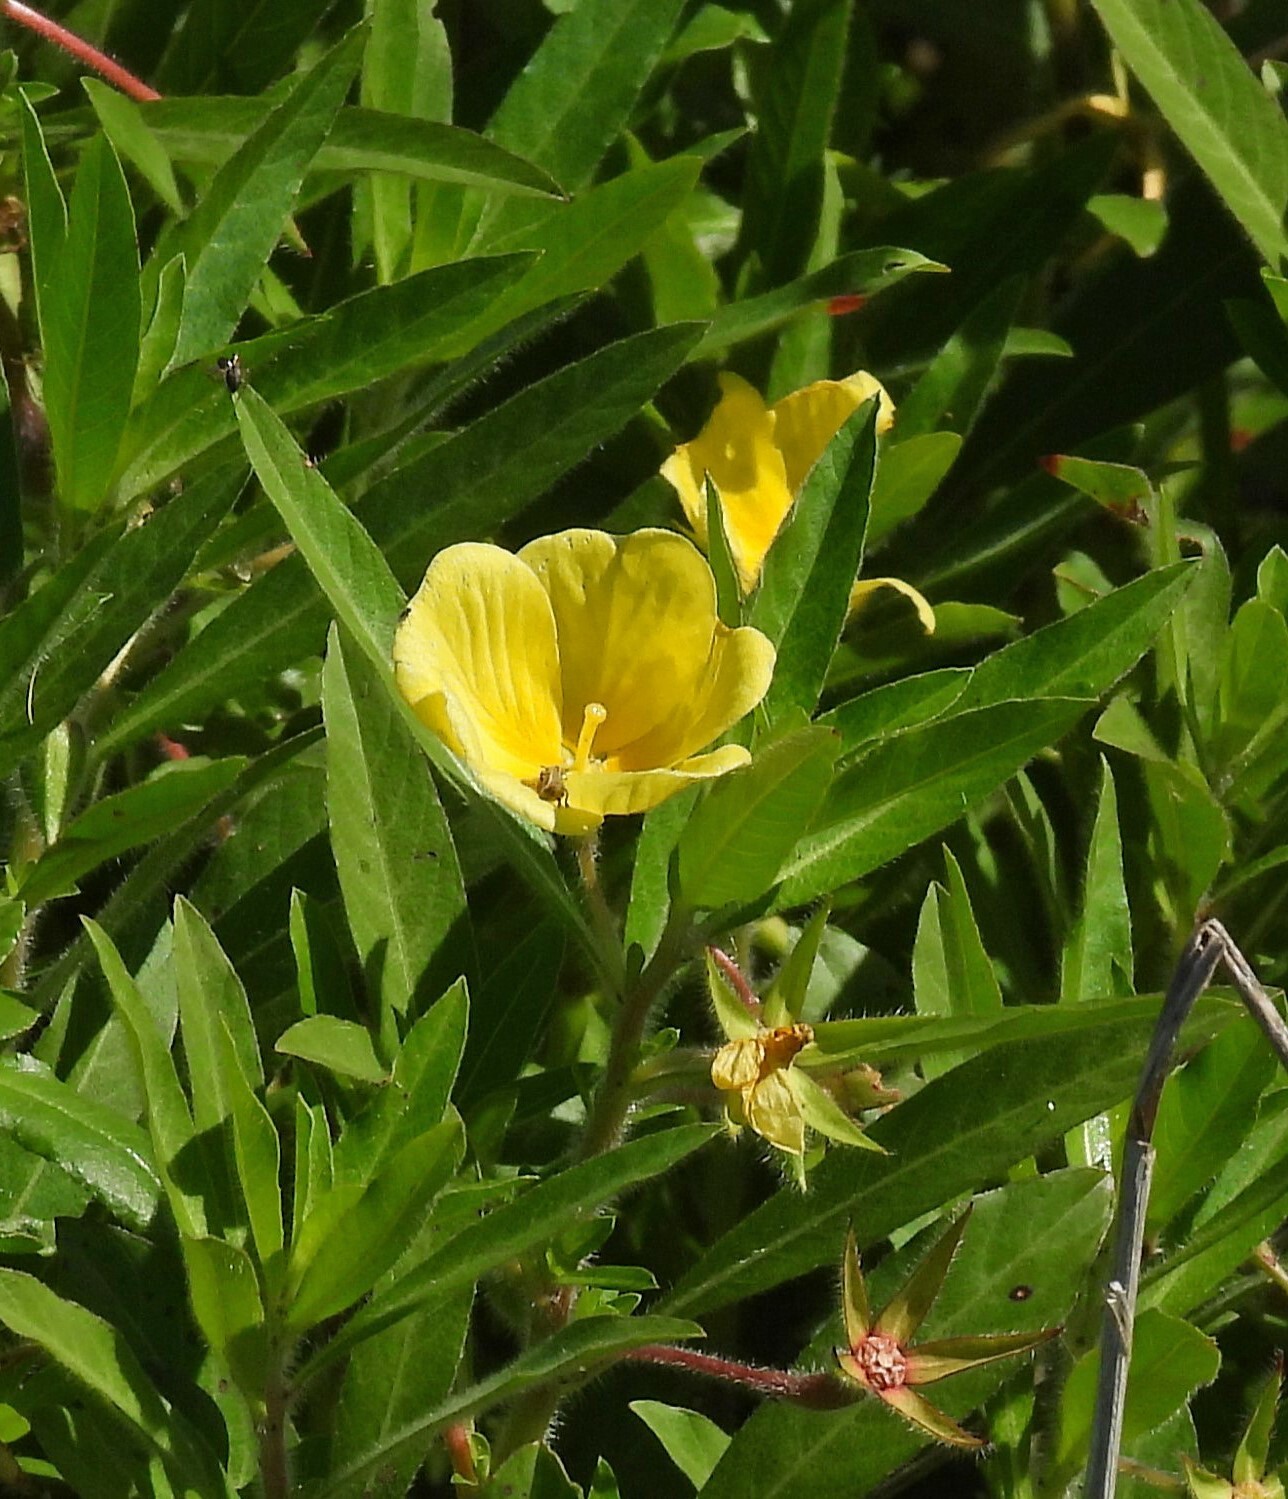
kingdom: Plantae
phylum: Tracheophyta
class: Magnoliopsida
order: Myrtales
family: Onagraceae
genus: Ludwigia
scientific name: Ludwigia peploides
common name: Floating primrose-willow
